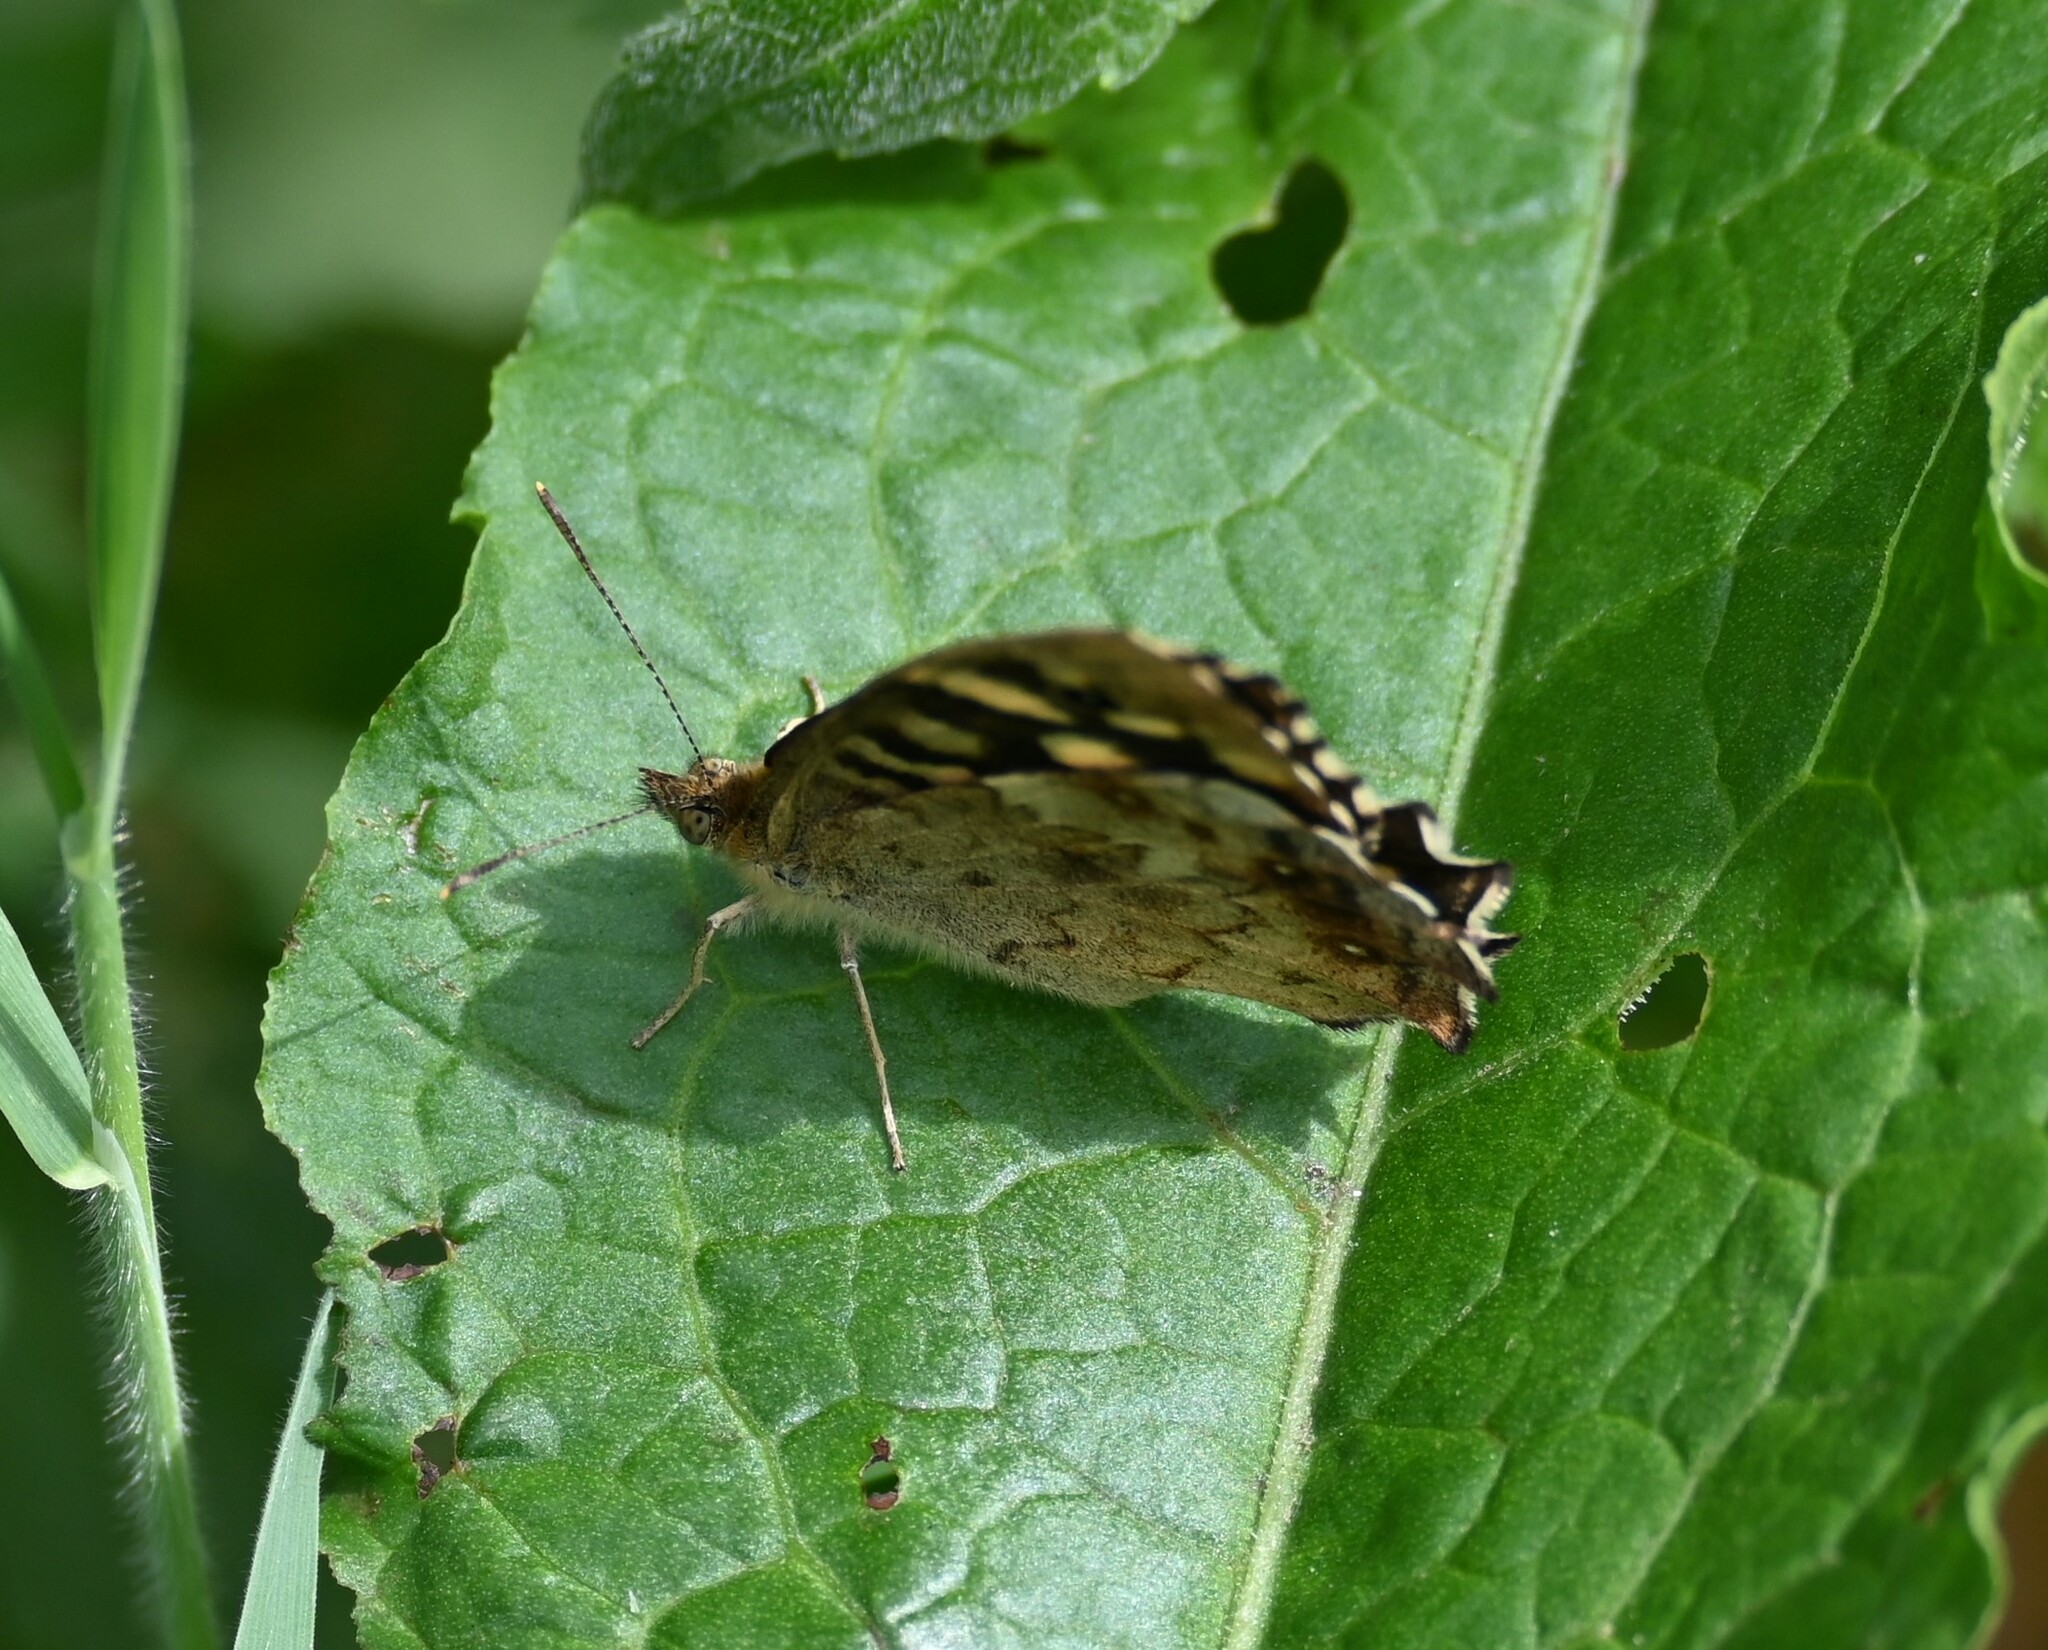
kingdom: Animalia
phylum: Arthropoda
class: Insecta
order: Lepidoptera
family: Nymphalidae
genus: Pararge
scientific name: Pararge aegeria
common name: Speckled wood
